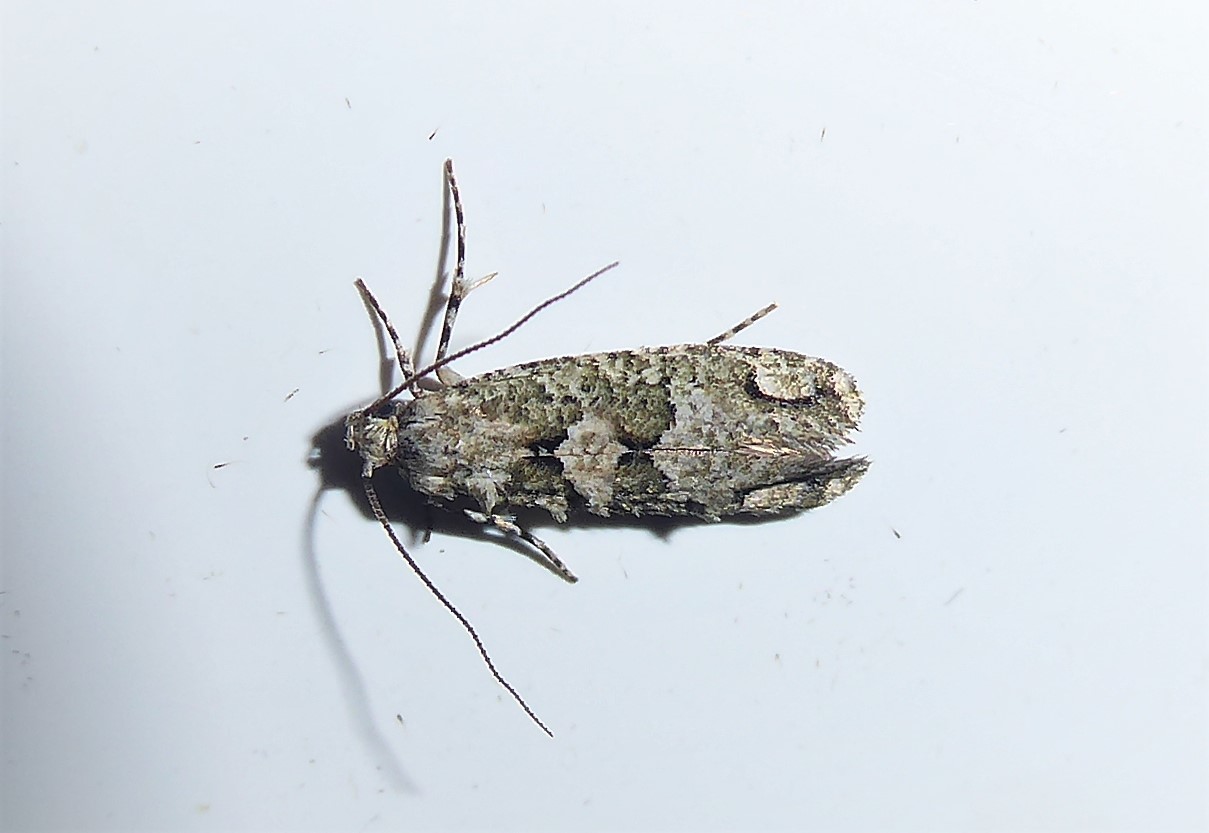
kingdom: Animalia
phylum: Arthropoda
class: Insecta
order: Lepidoptera
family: Tineidae
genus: Lysiphragma
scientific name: Lysiphragma howesii
